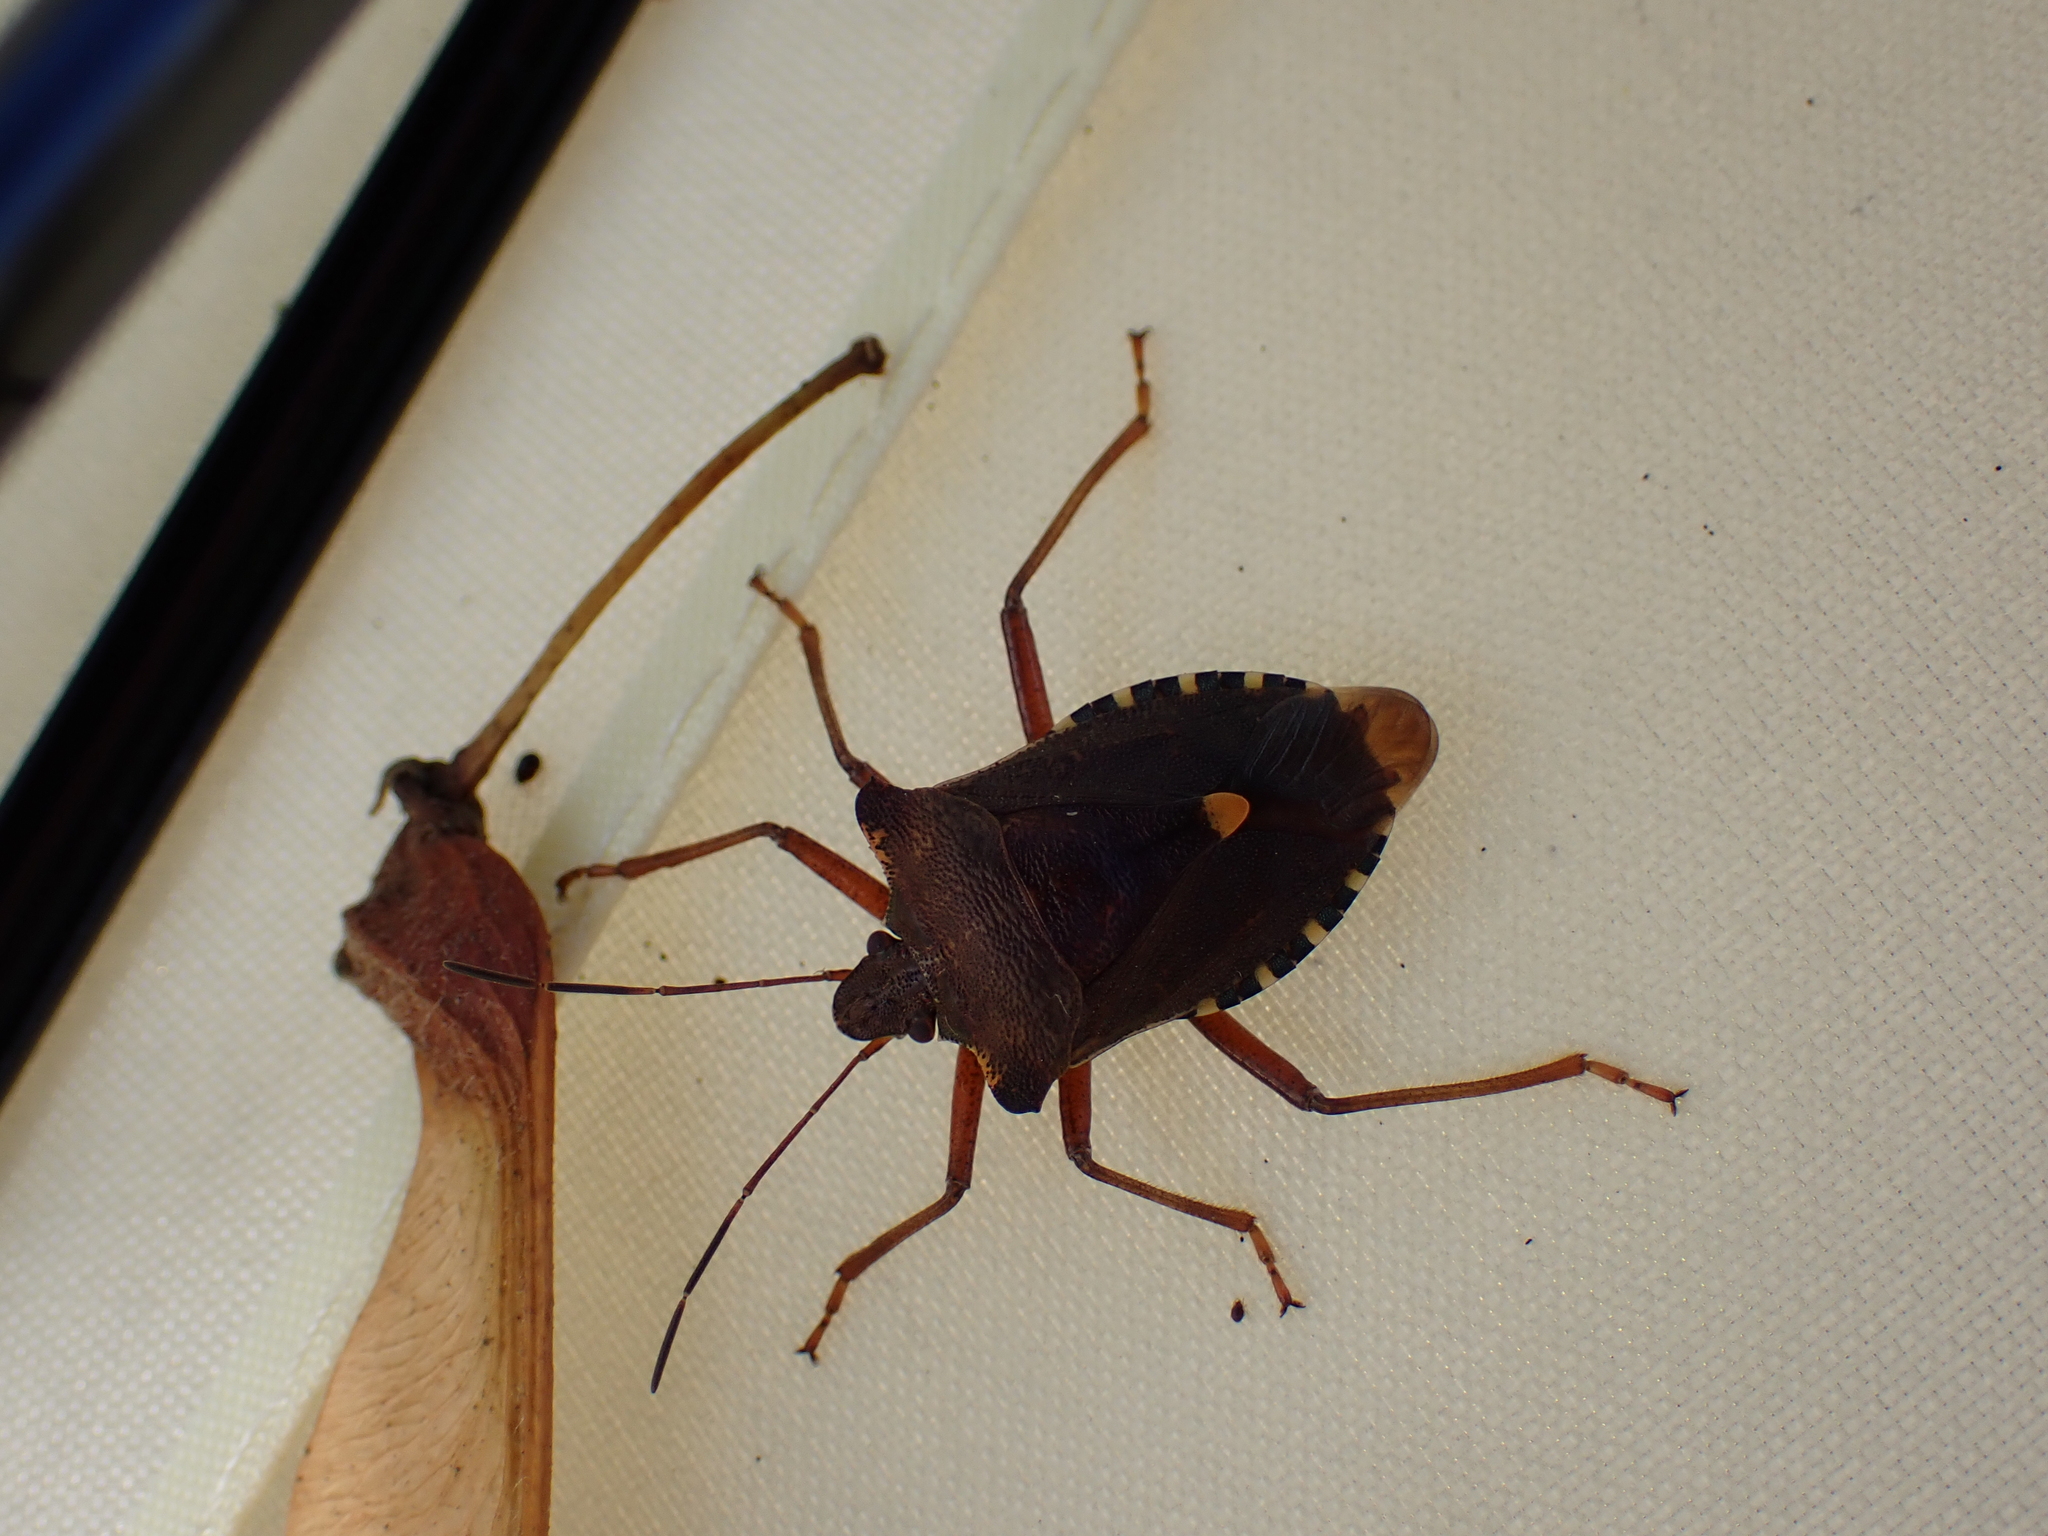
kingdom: Animalia
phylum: Arthropoda
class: Insecta
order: Hemiptera
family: Pentatomidae
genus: Pentatoma
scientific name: Pentatoma rufipes
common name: Forest bug
